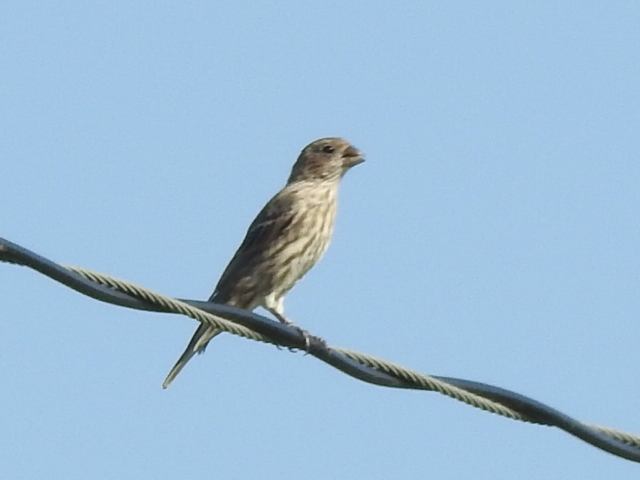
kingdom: Animalia
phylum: Chordata
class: Aves
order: Passeriformes
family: Fringillidae
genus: Haemorhous
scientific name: Haemorhous mexicanus
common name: House finch
